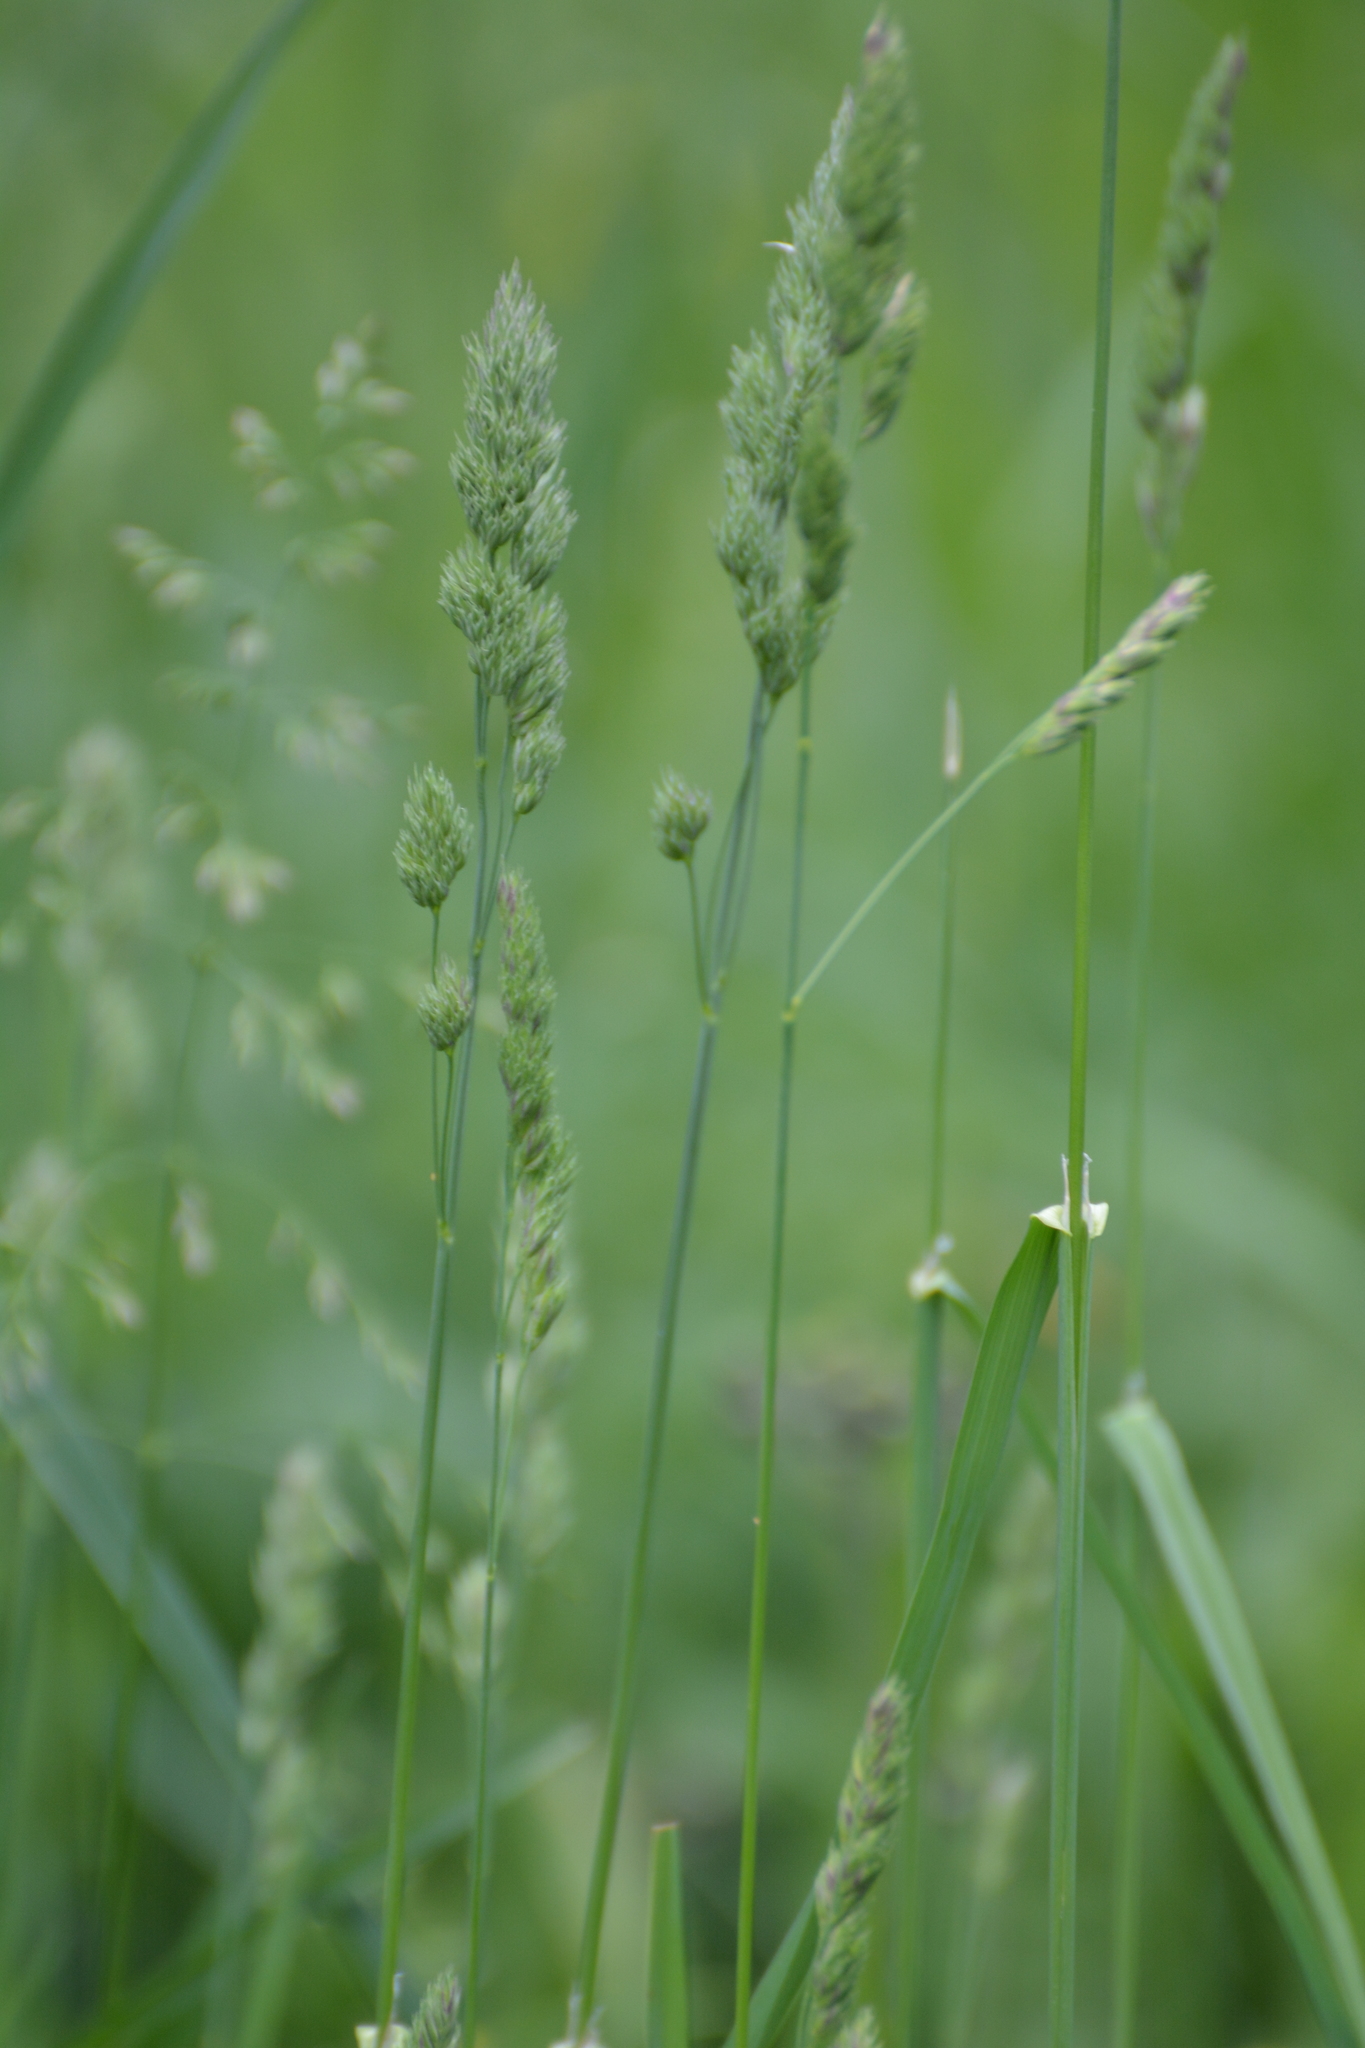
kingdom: Plantae
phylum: Tracheophyta
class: Liliopsida
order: Poales
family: Poaceae
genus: Dactylis
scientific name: Dactylis glomerata
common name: Orchardgrass
